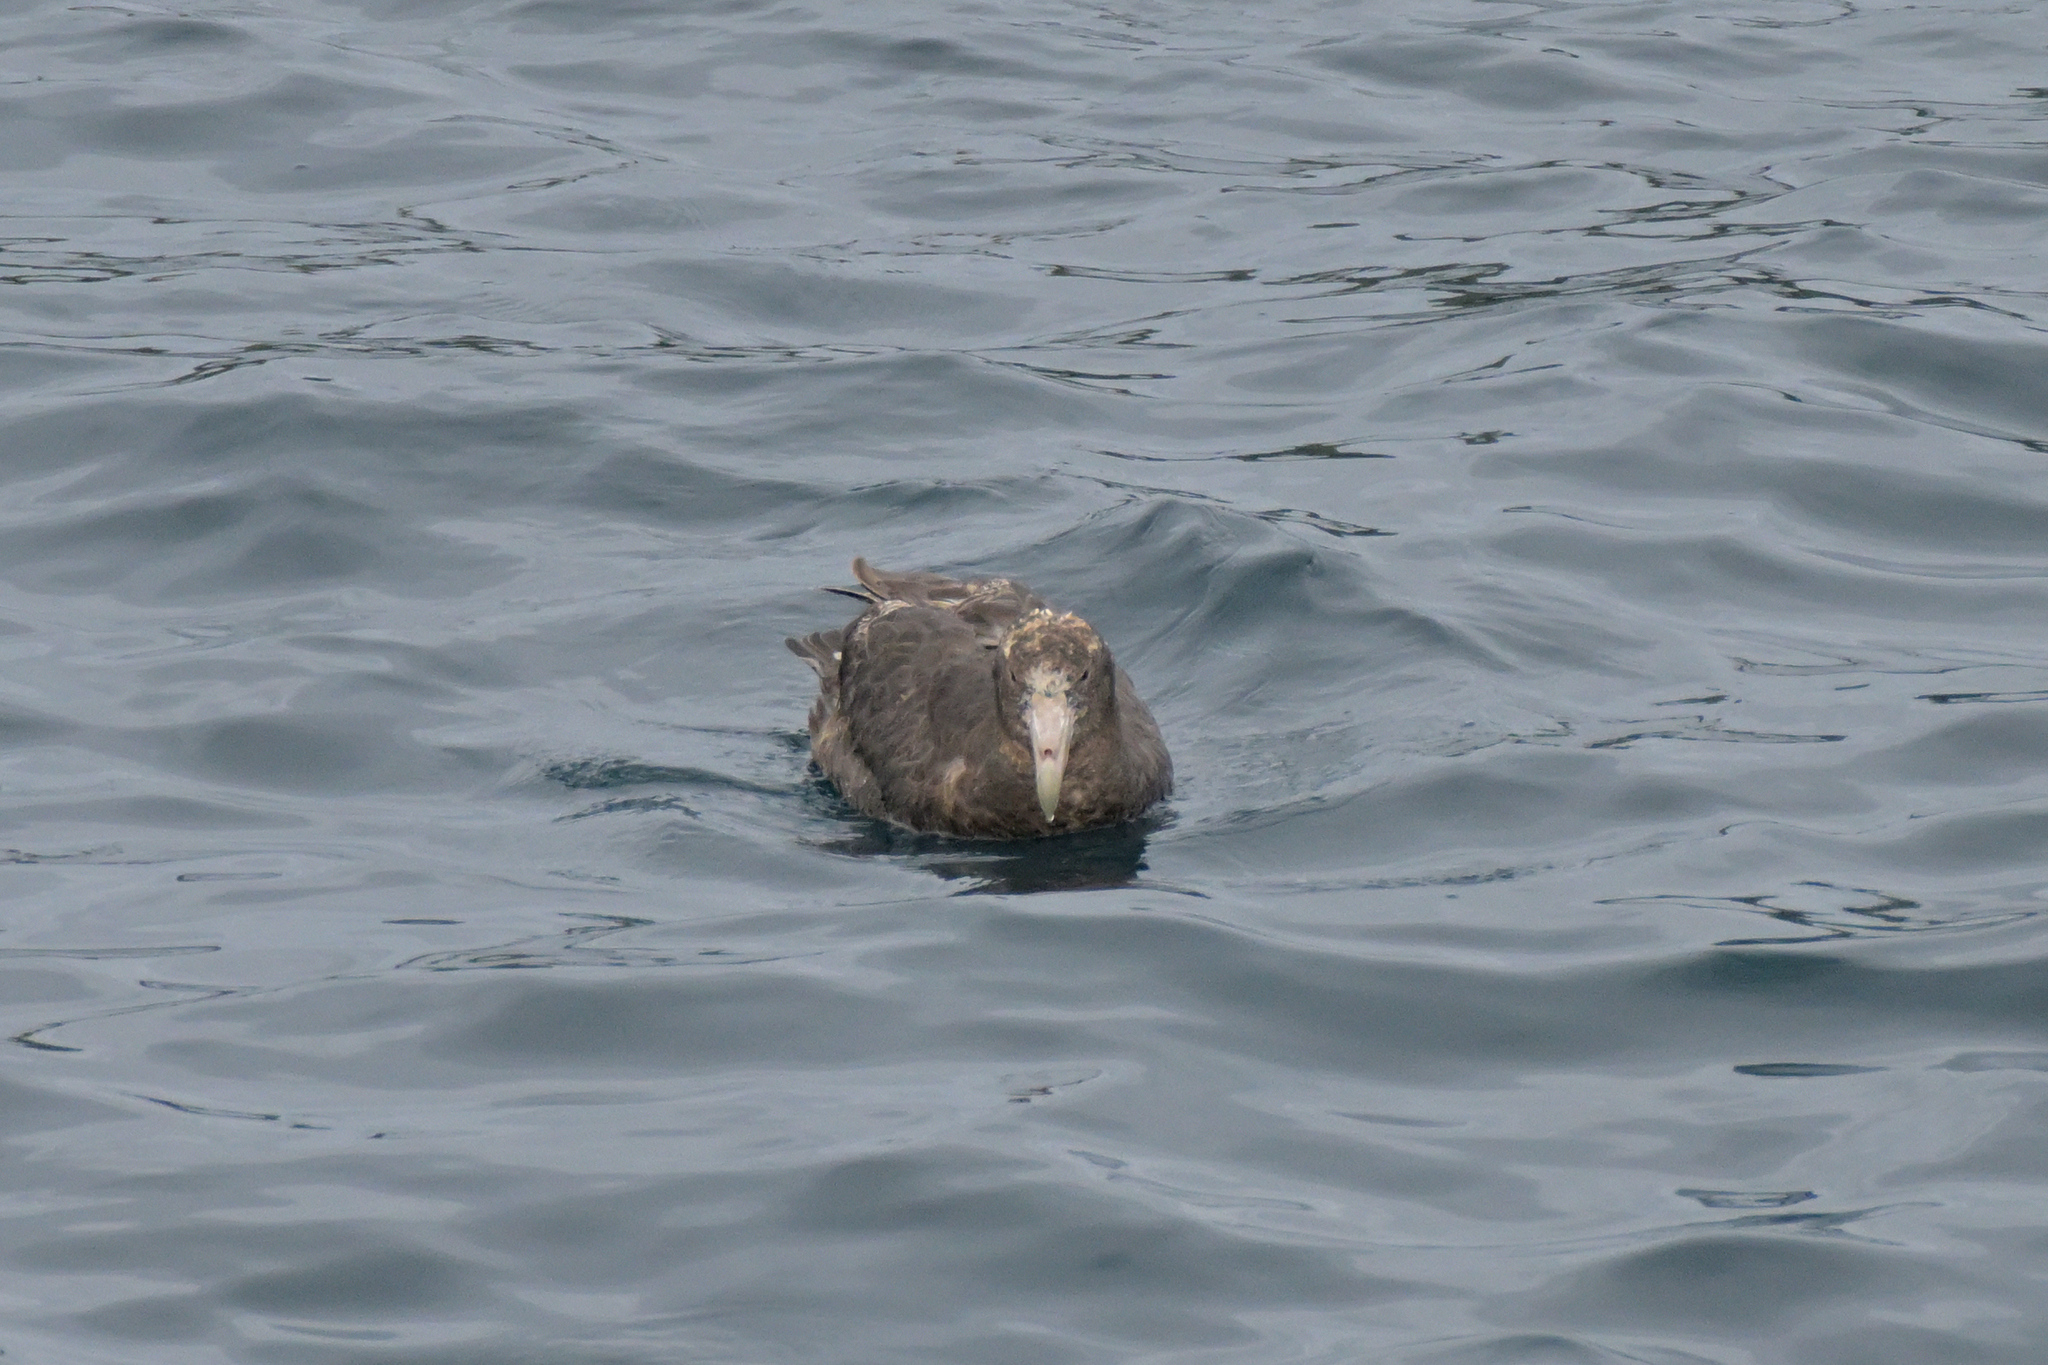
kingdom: Animalia
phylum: Chordata
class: Aves
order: Procellariiformes
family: Procellariidae
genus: Macronectes
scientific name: Macronectes giganteus
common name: Southern giant petrel
